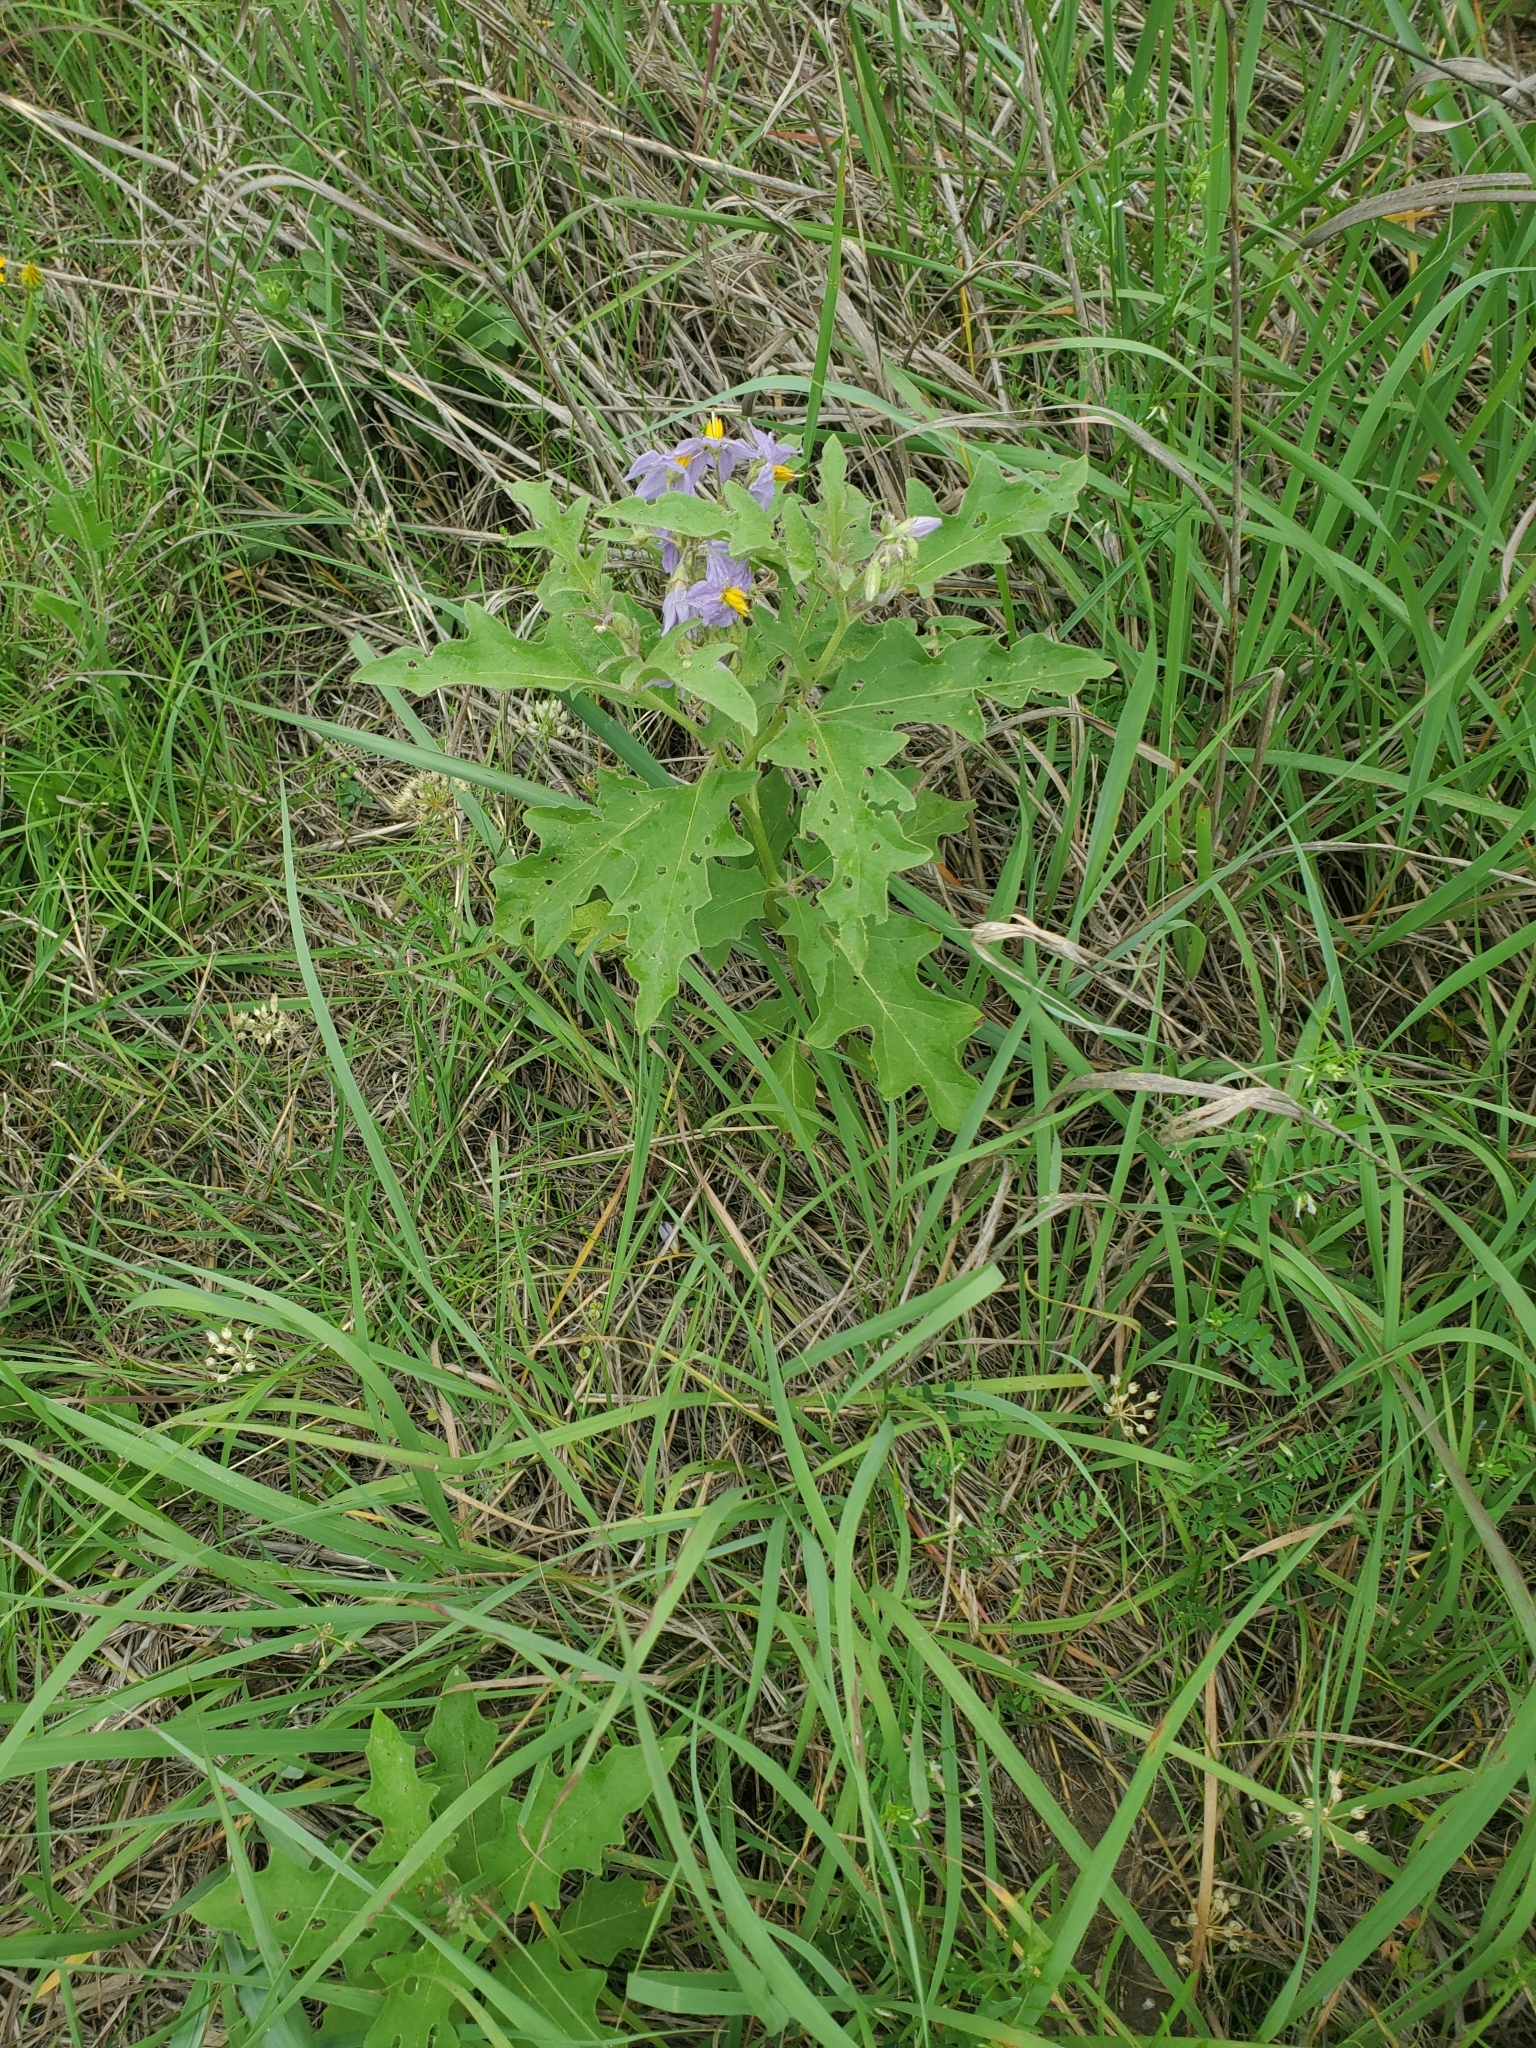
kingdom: Plantae
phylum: Tracheophyta
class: Magnoliopsida
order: Solanales
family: Solanaceae
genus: Solanum
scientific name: Solanum dimidiatum
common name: Carolina horse-nettle
